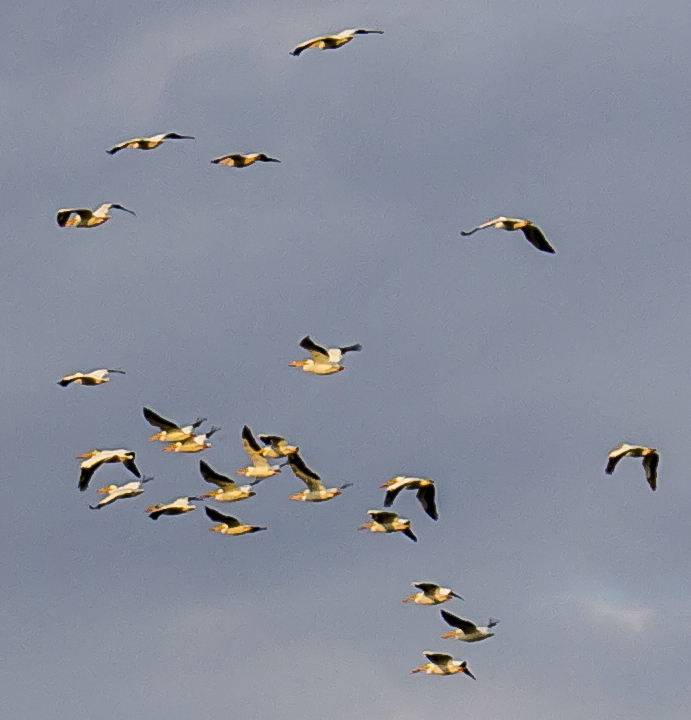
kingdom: Animalia
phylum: Chordata
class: Aves
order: Pelecaniformes
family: Pelecanidae
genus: Pelecanus
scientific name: Pelecanus erythrorhynchos
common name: American white pelican
